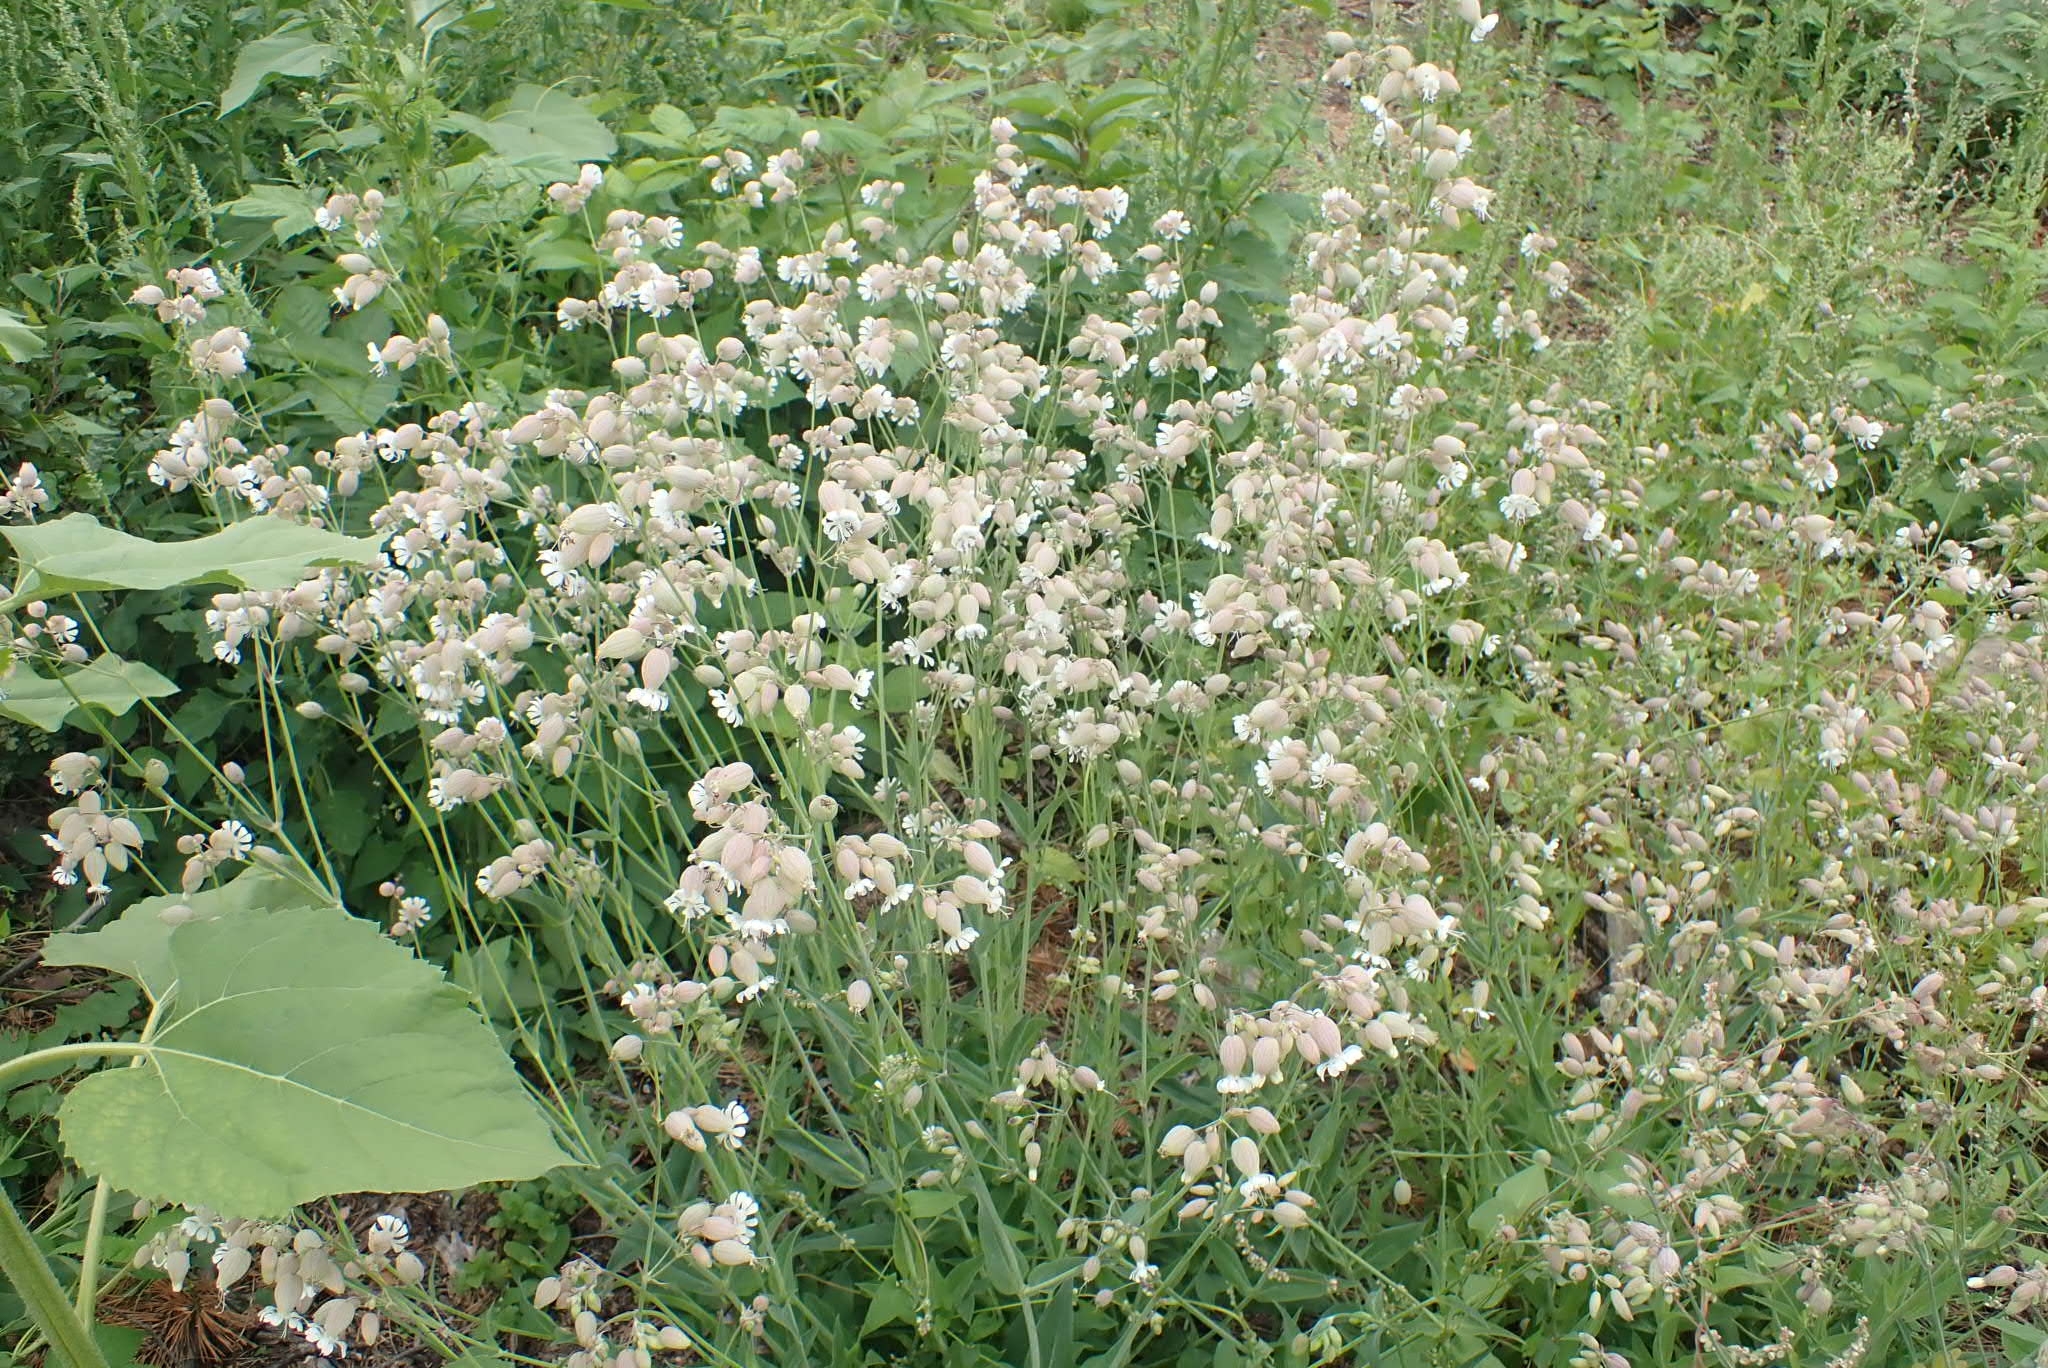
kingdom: Plantae
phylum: Tracheophyta
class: Magnoliopsida
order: Caryophyllales
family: Caryophyllaceae
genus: Silene
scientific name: Silene vulgaris
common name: Bladder campion
